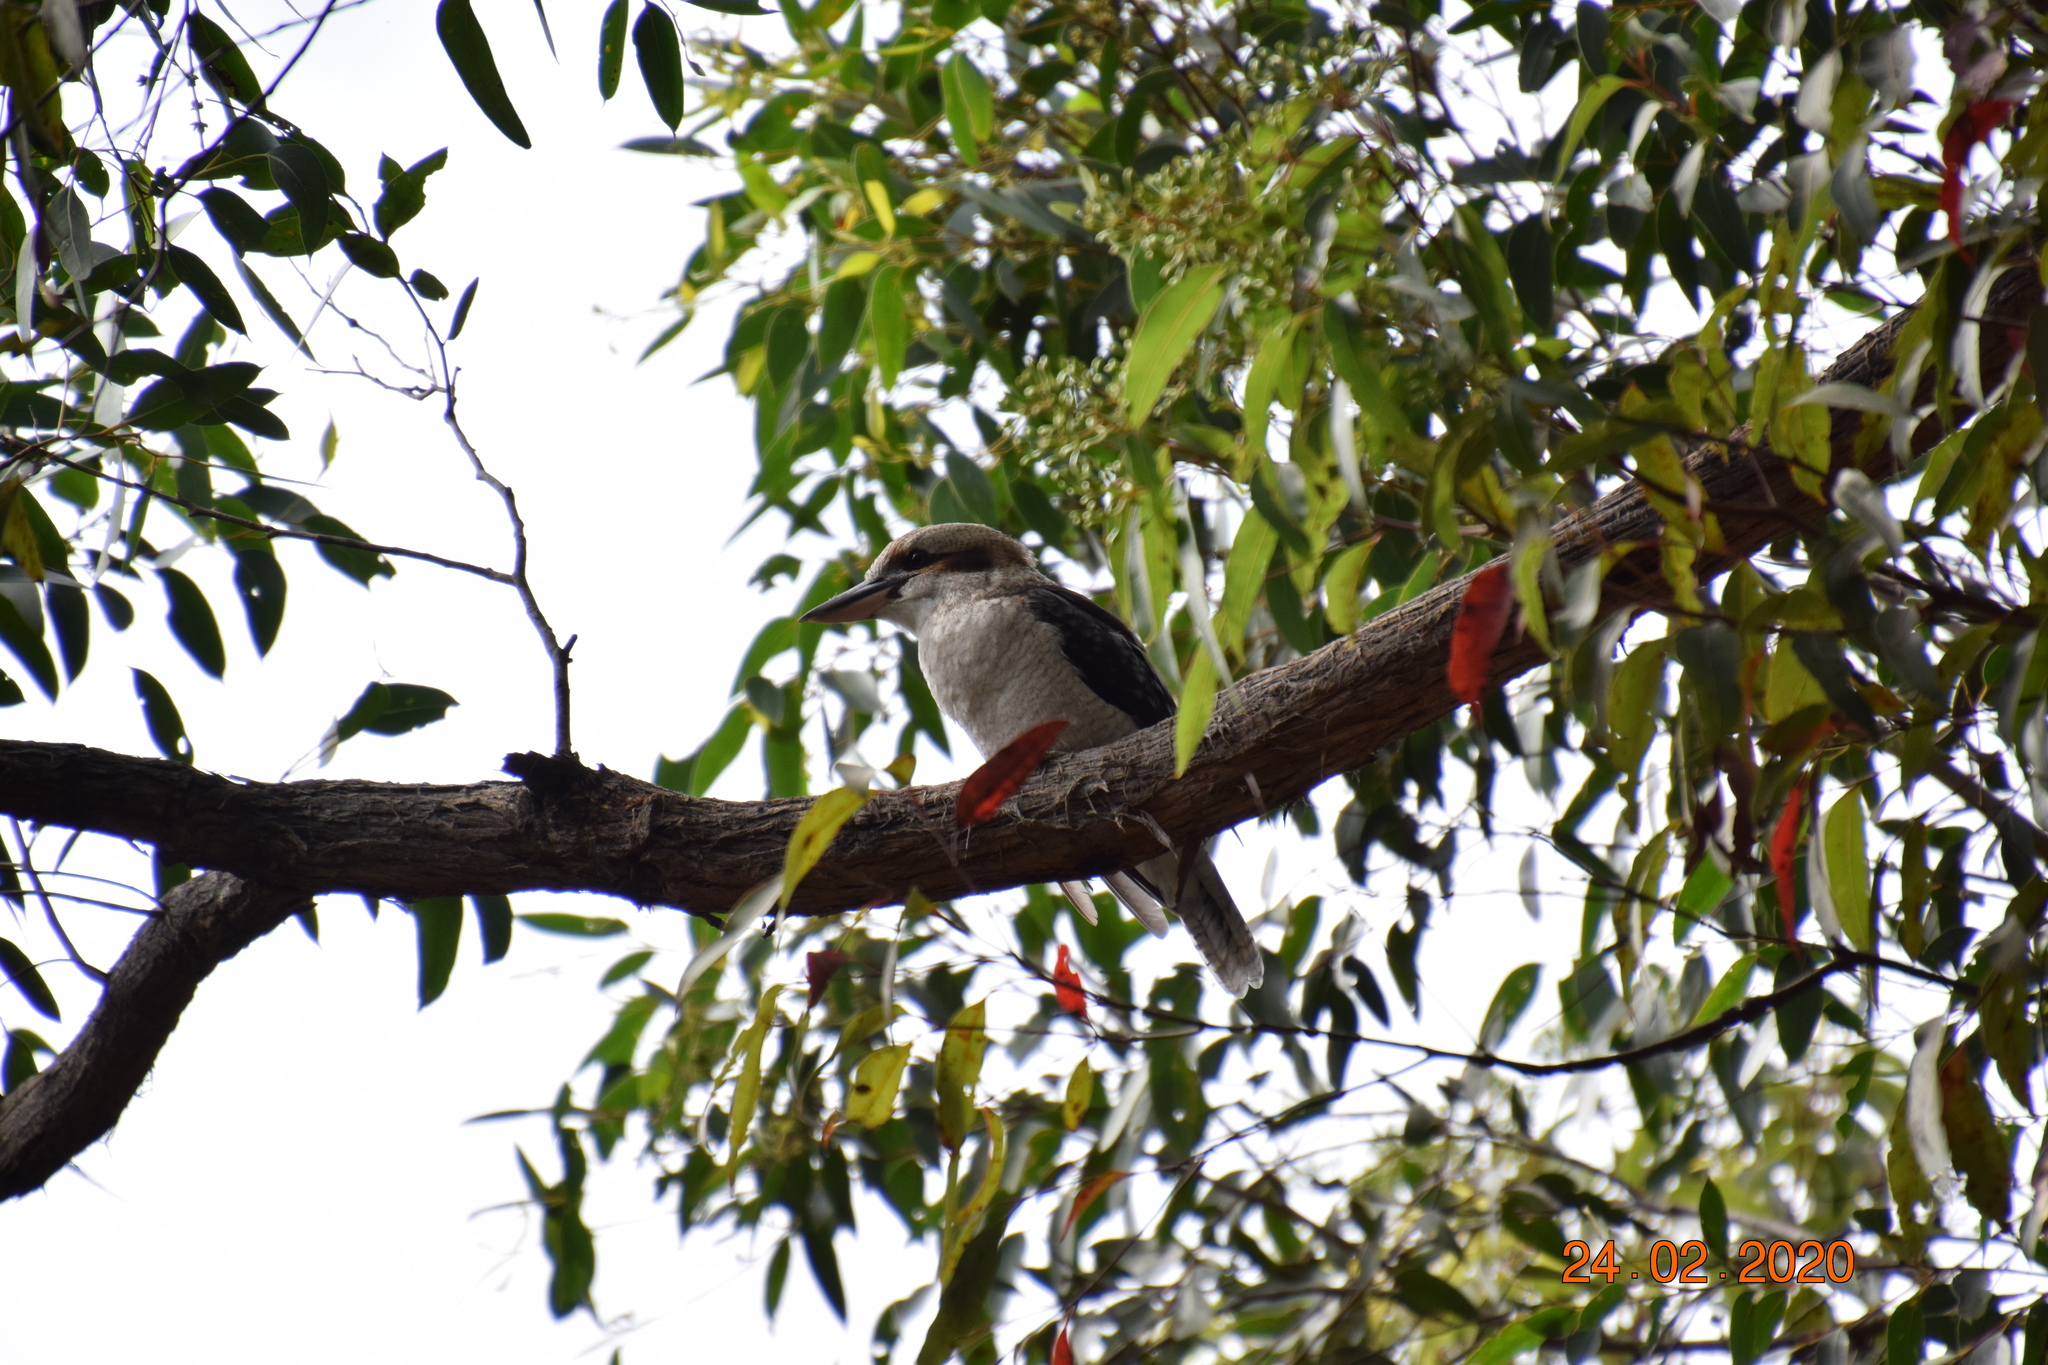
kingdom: Animalia
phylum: Chordata
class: Aves
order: Coraciiformes
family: Alcedinidae
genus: Dacelo
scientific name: Dacelo novaeguineae
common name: Laughing kookaburra
